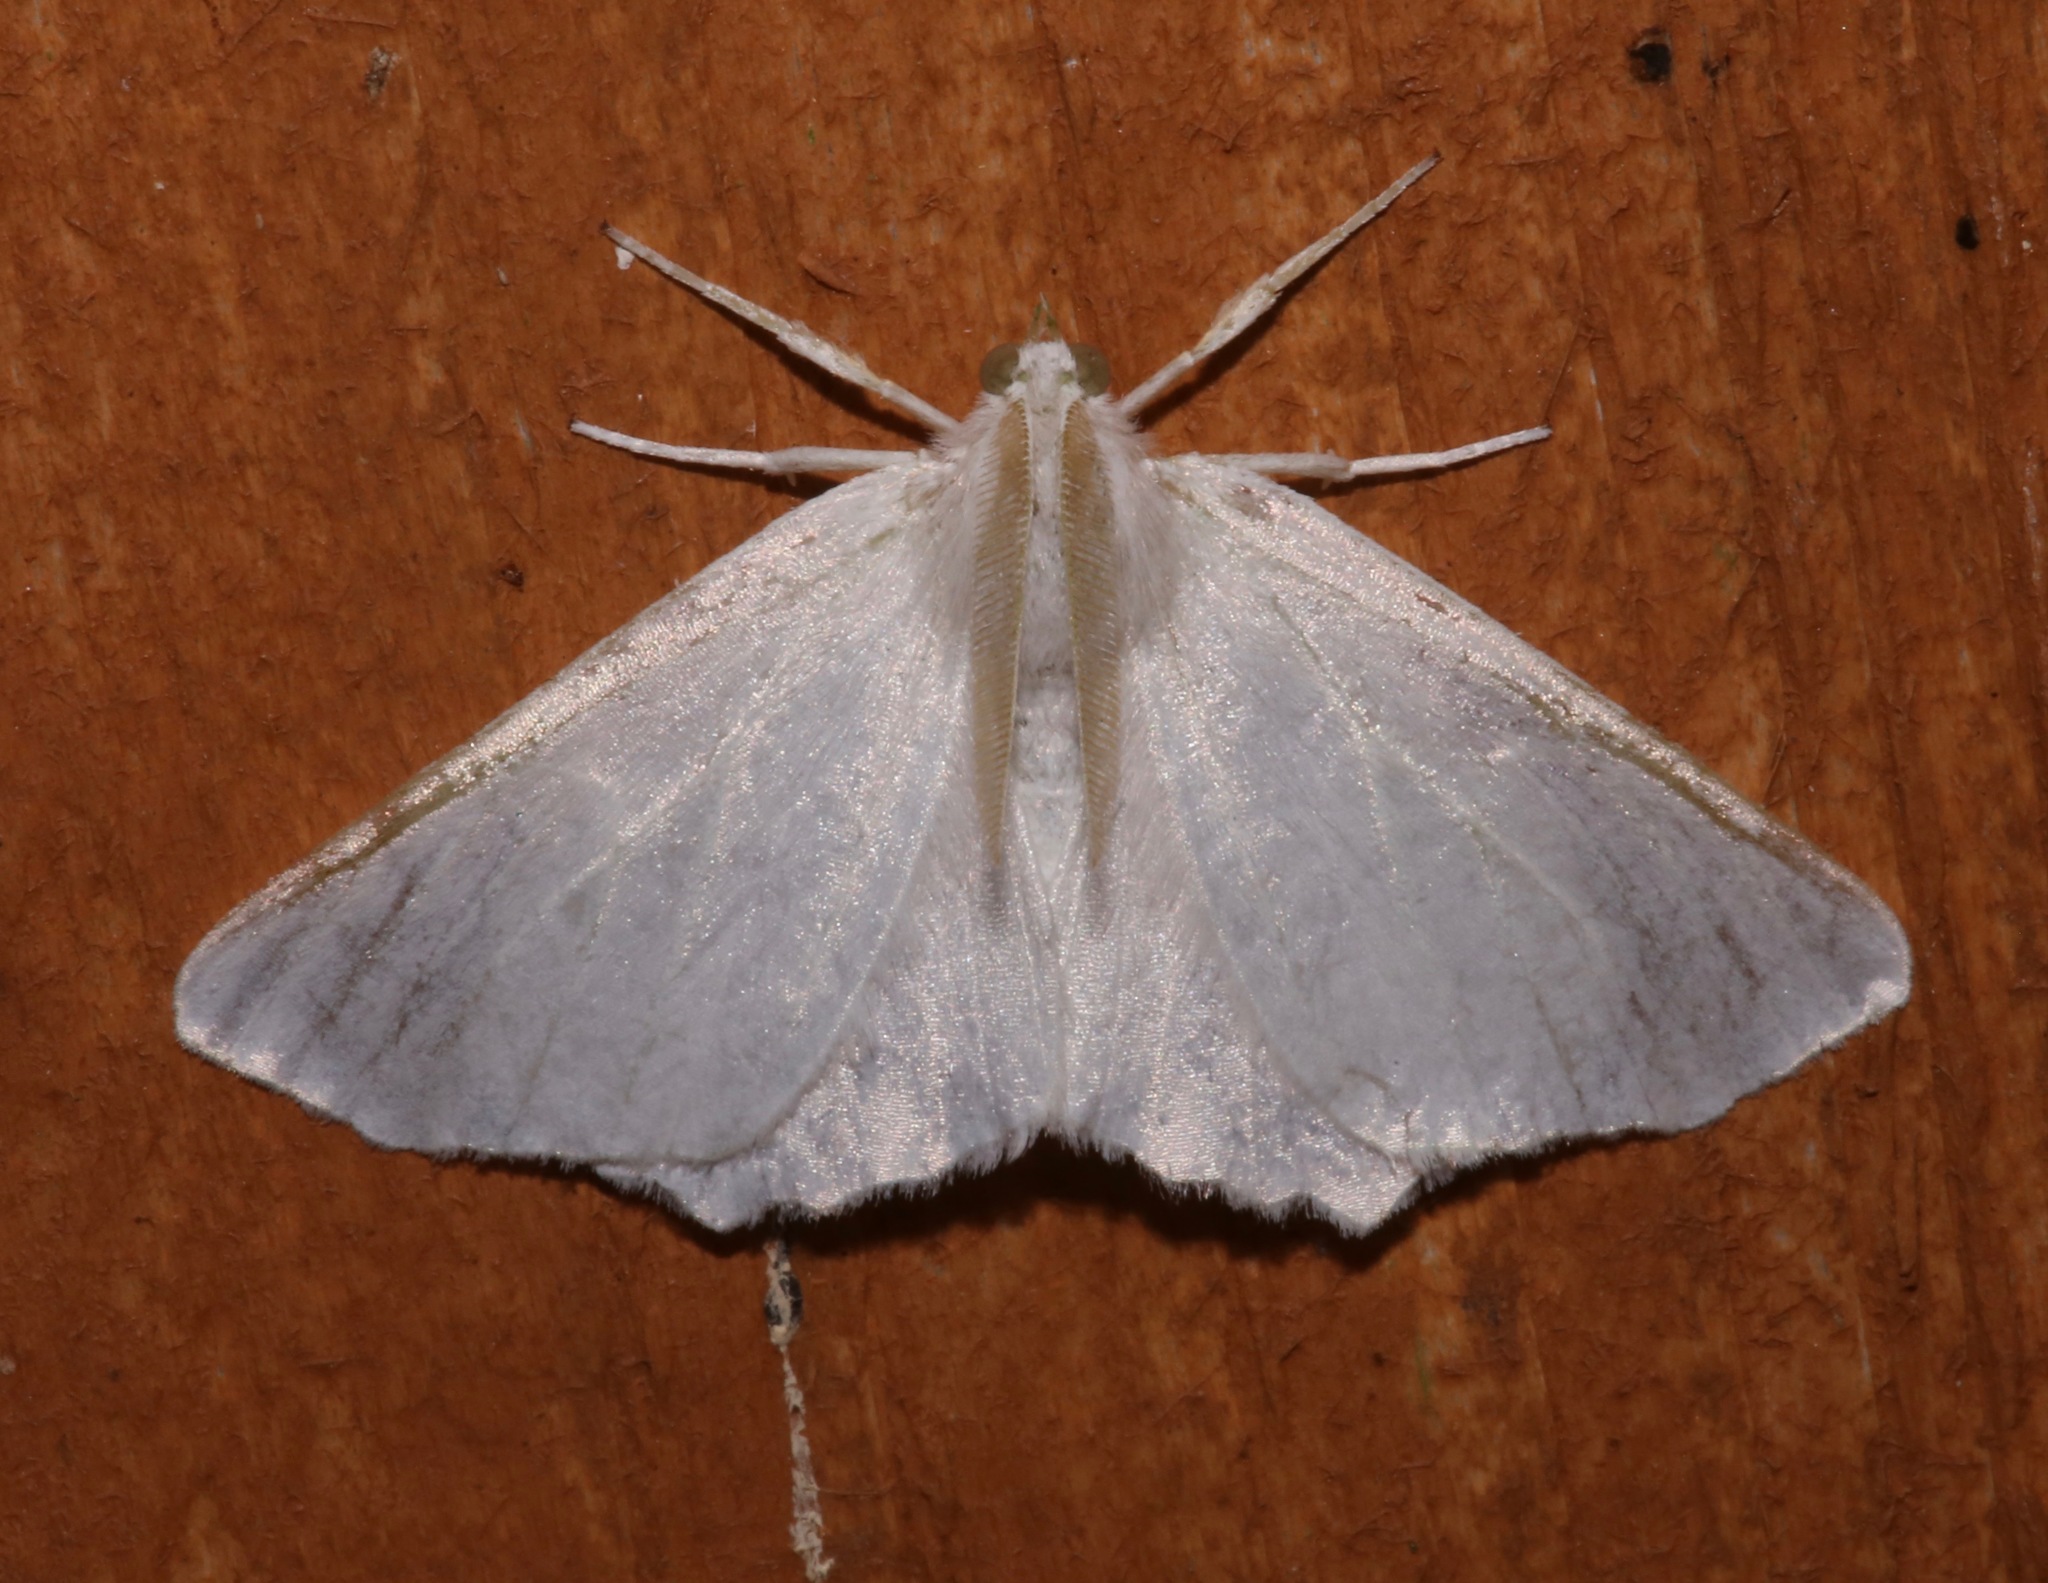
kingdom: Animalia
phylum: Arthropoda
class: Insecta
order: Lepidoptera
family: Geometridae
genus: Ennomos
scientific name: Ennomos subsignaria
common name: Elm spanworm
